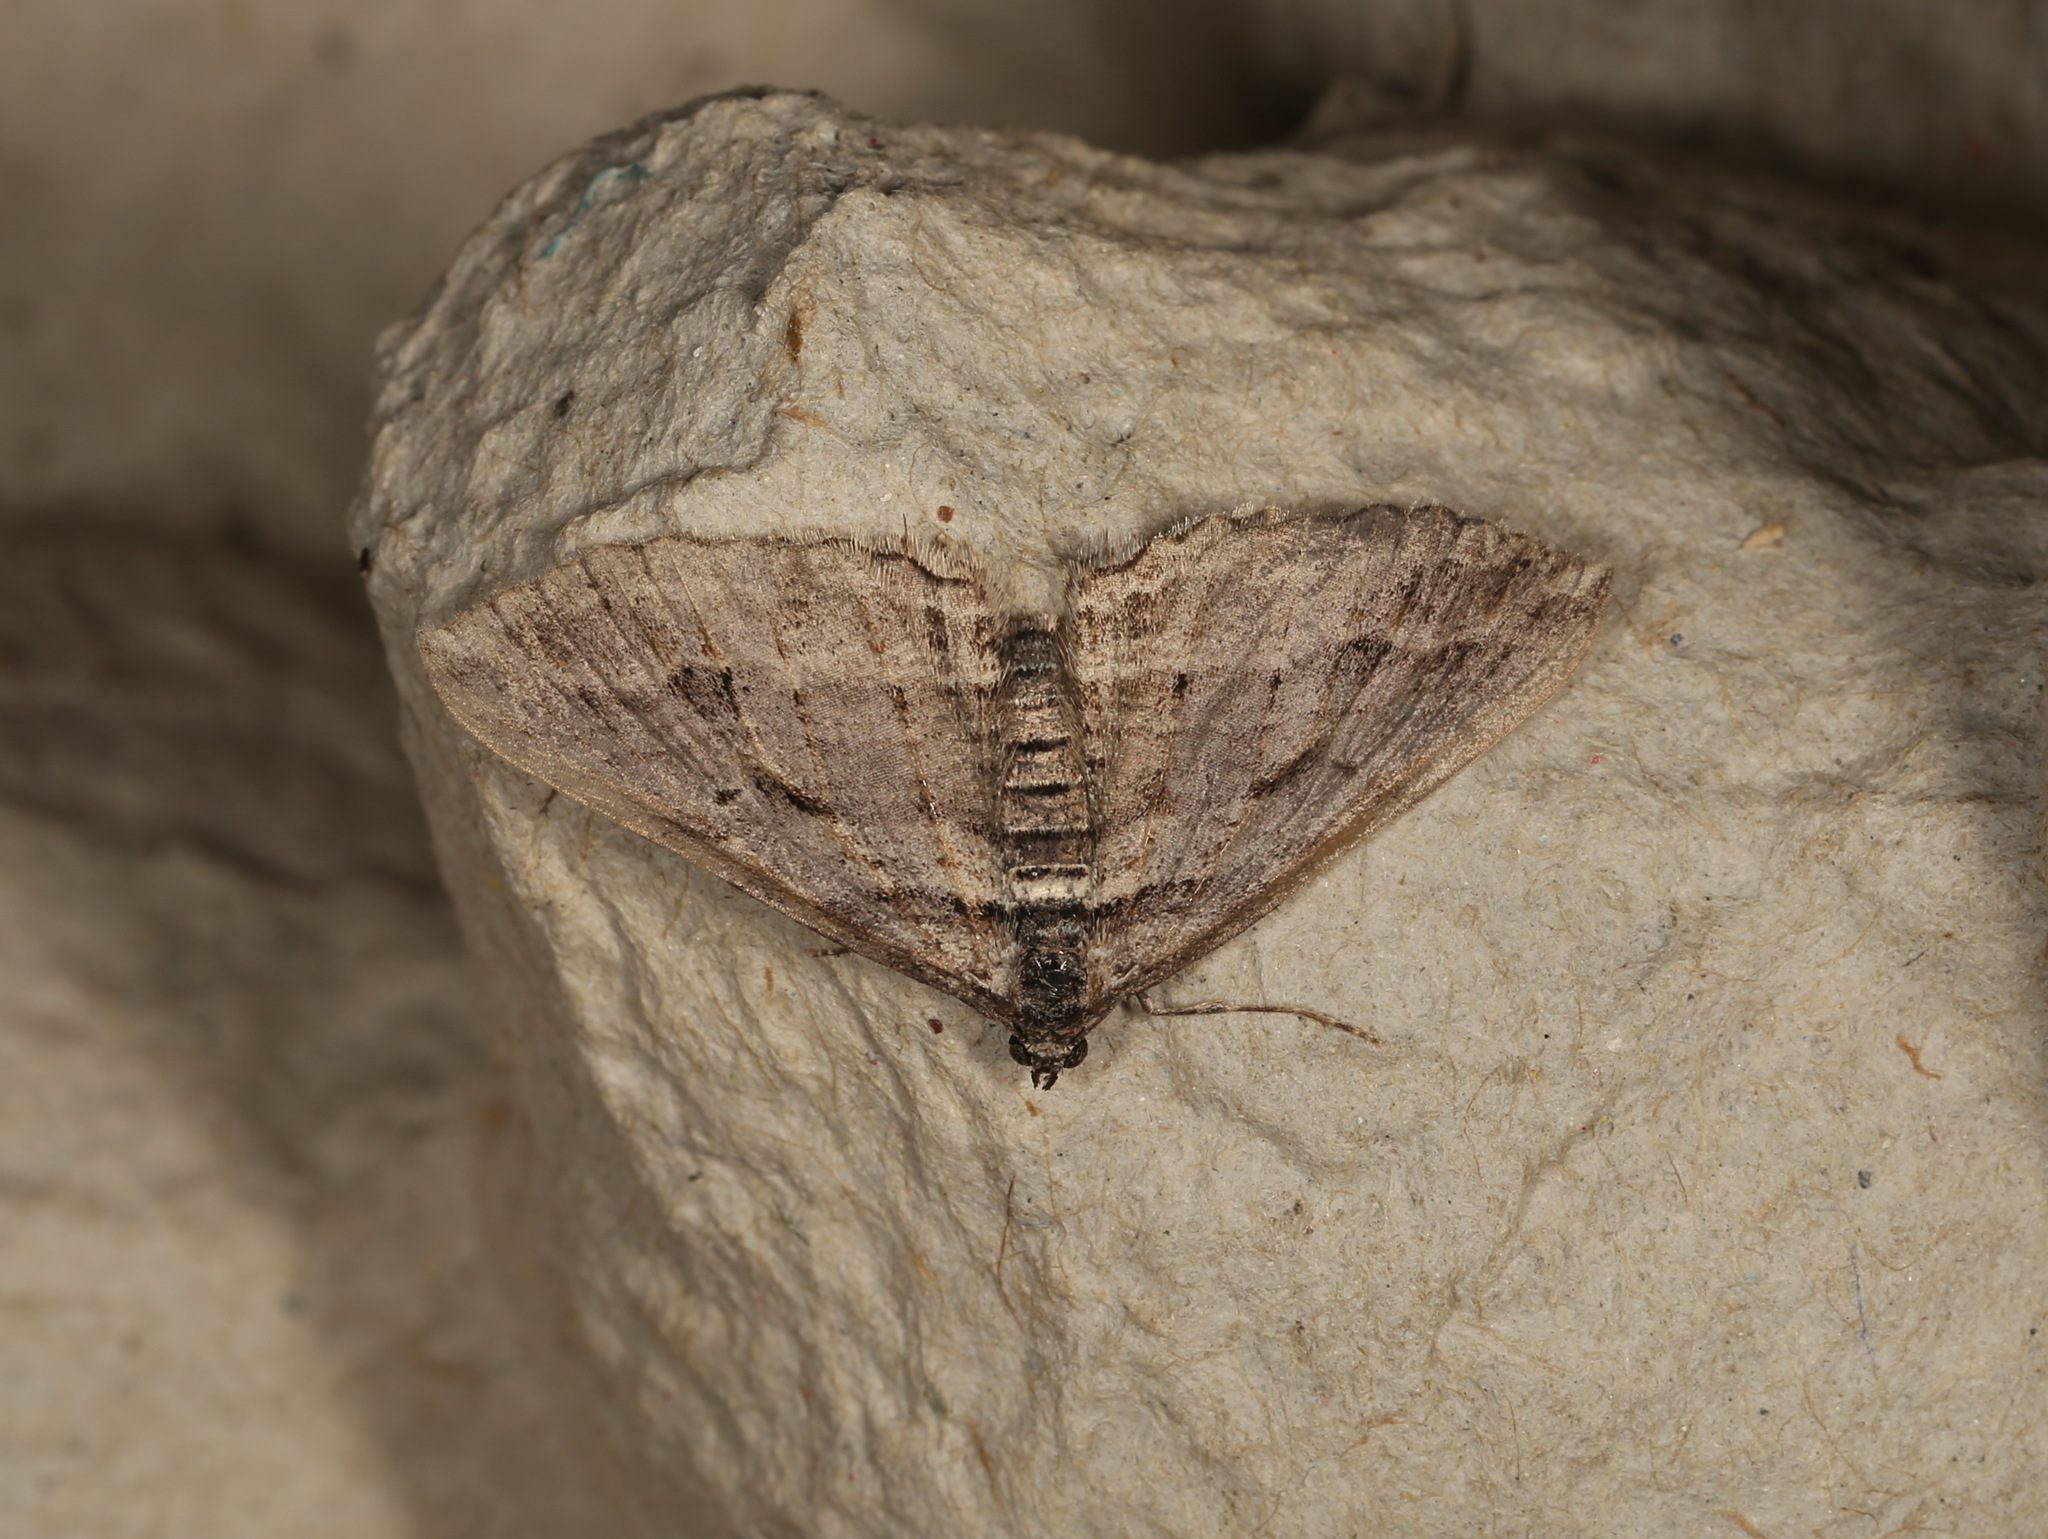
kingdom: Animalia
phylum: Arthropoda
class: Insecta
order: Lepidoptera
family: Geometridae
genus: Chrysolarentia
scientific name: Chrysolarentia severata
